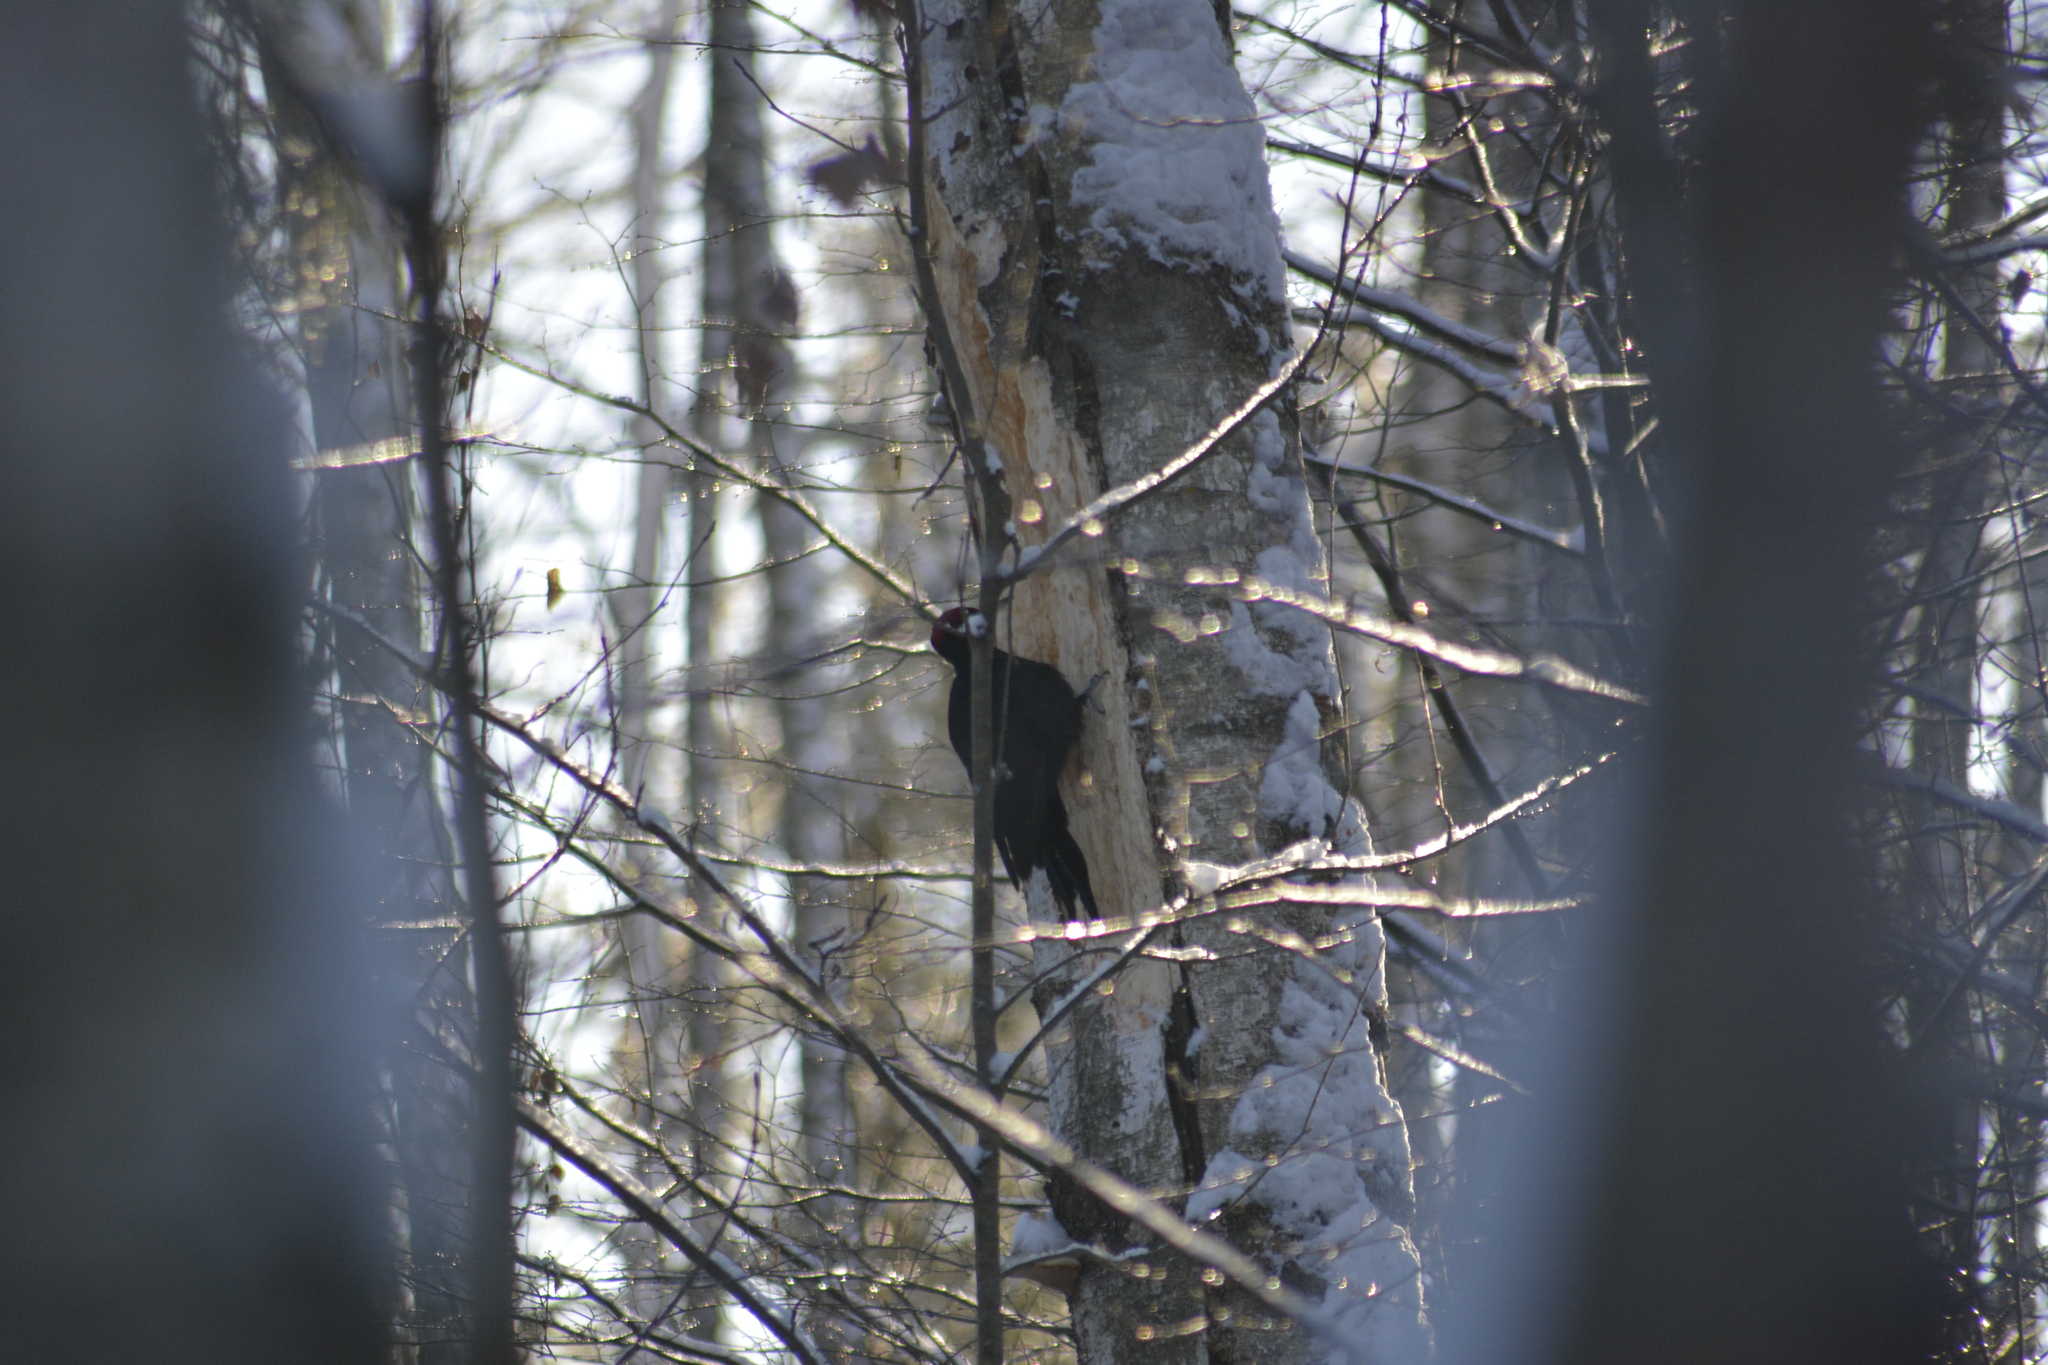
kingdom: Animalia
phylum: Chordata
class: Aves
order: Piciformes
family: Picidae
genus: Dryocopus
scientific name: Dryocopus martius
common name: Black woodpecker
